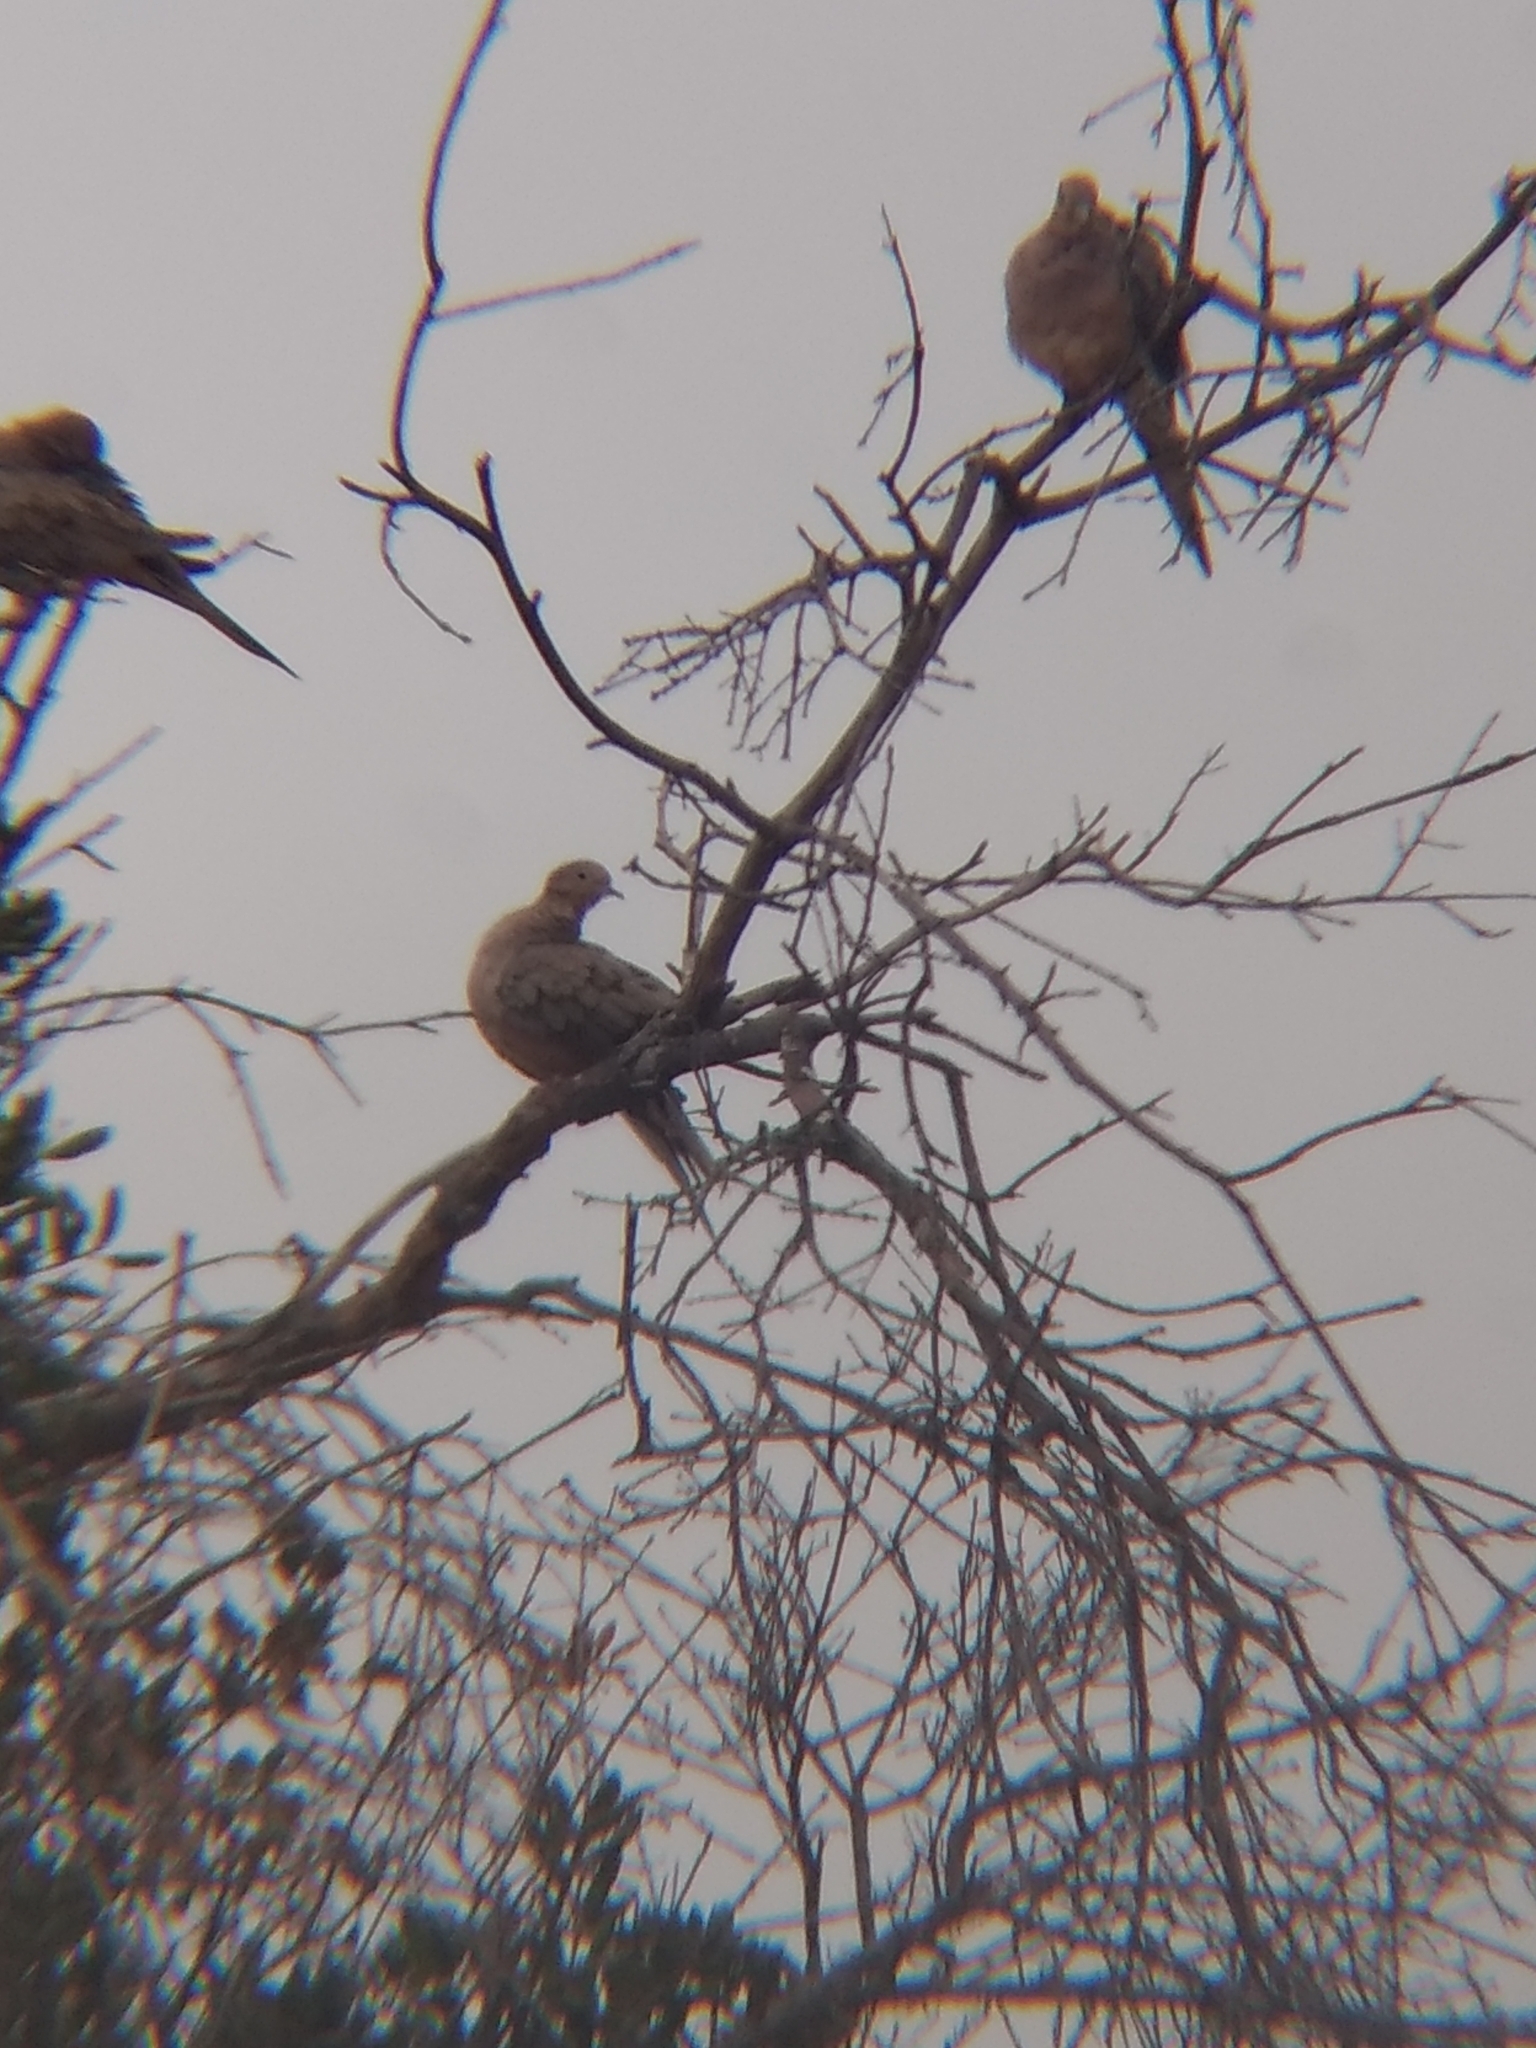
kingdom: Animalia
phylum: Chordata
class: Aves
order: Columbiformes
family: Columbidae
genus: Zenaida
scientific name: Zenaida macroura
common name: Mourning dove
